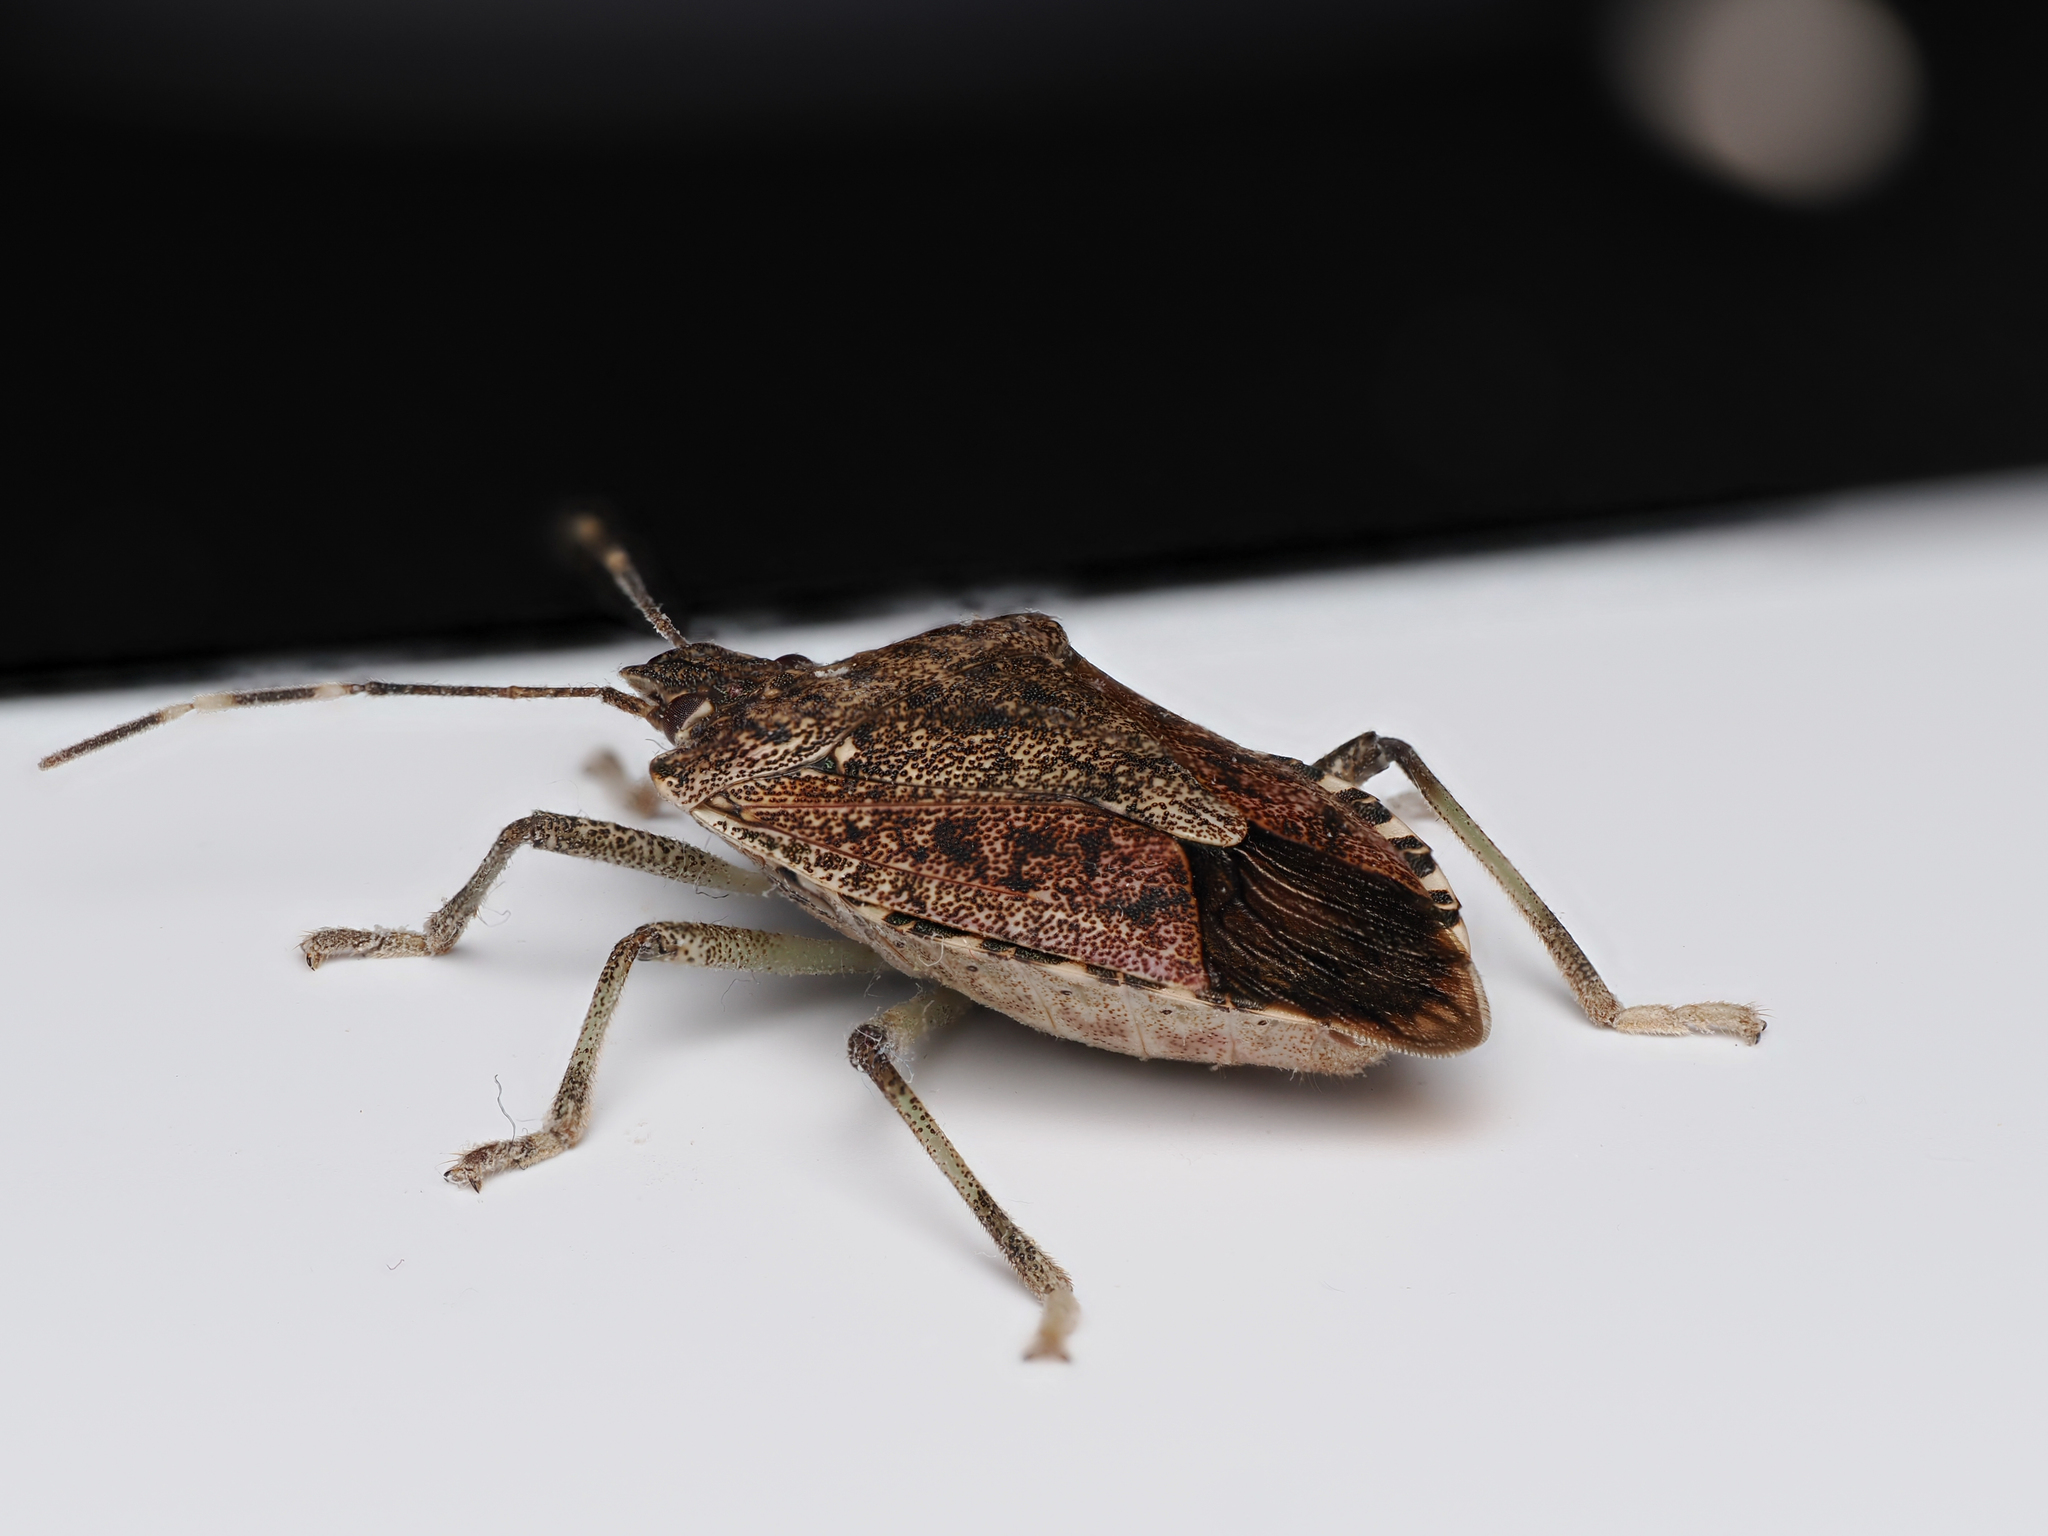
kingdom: Animalia
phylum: Arthropoda
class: Insecta
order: Hemiptera
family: Pentatomidae
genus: Halyomorpha
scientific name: Halyomorpha halys
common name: Brown marmorated stink bug
